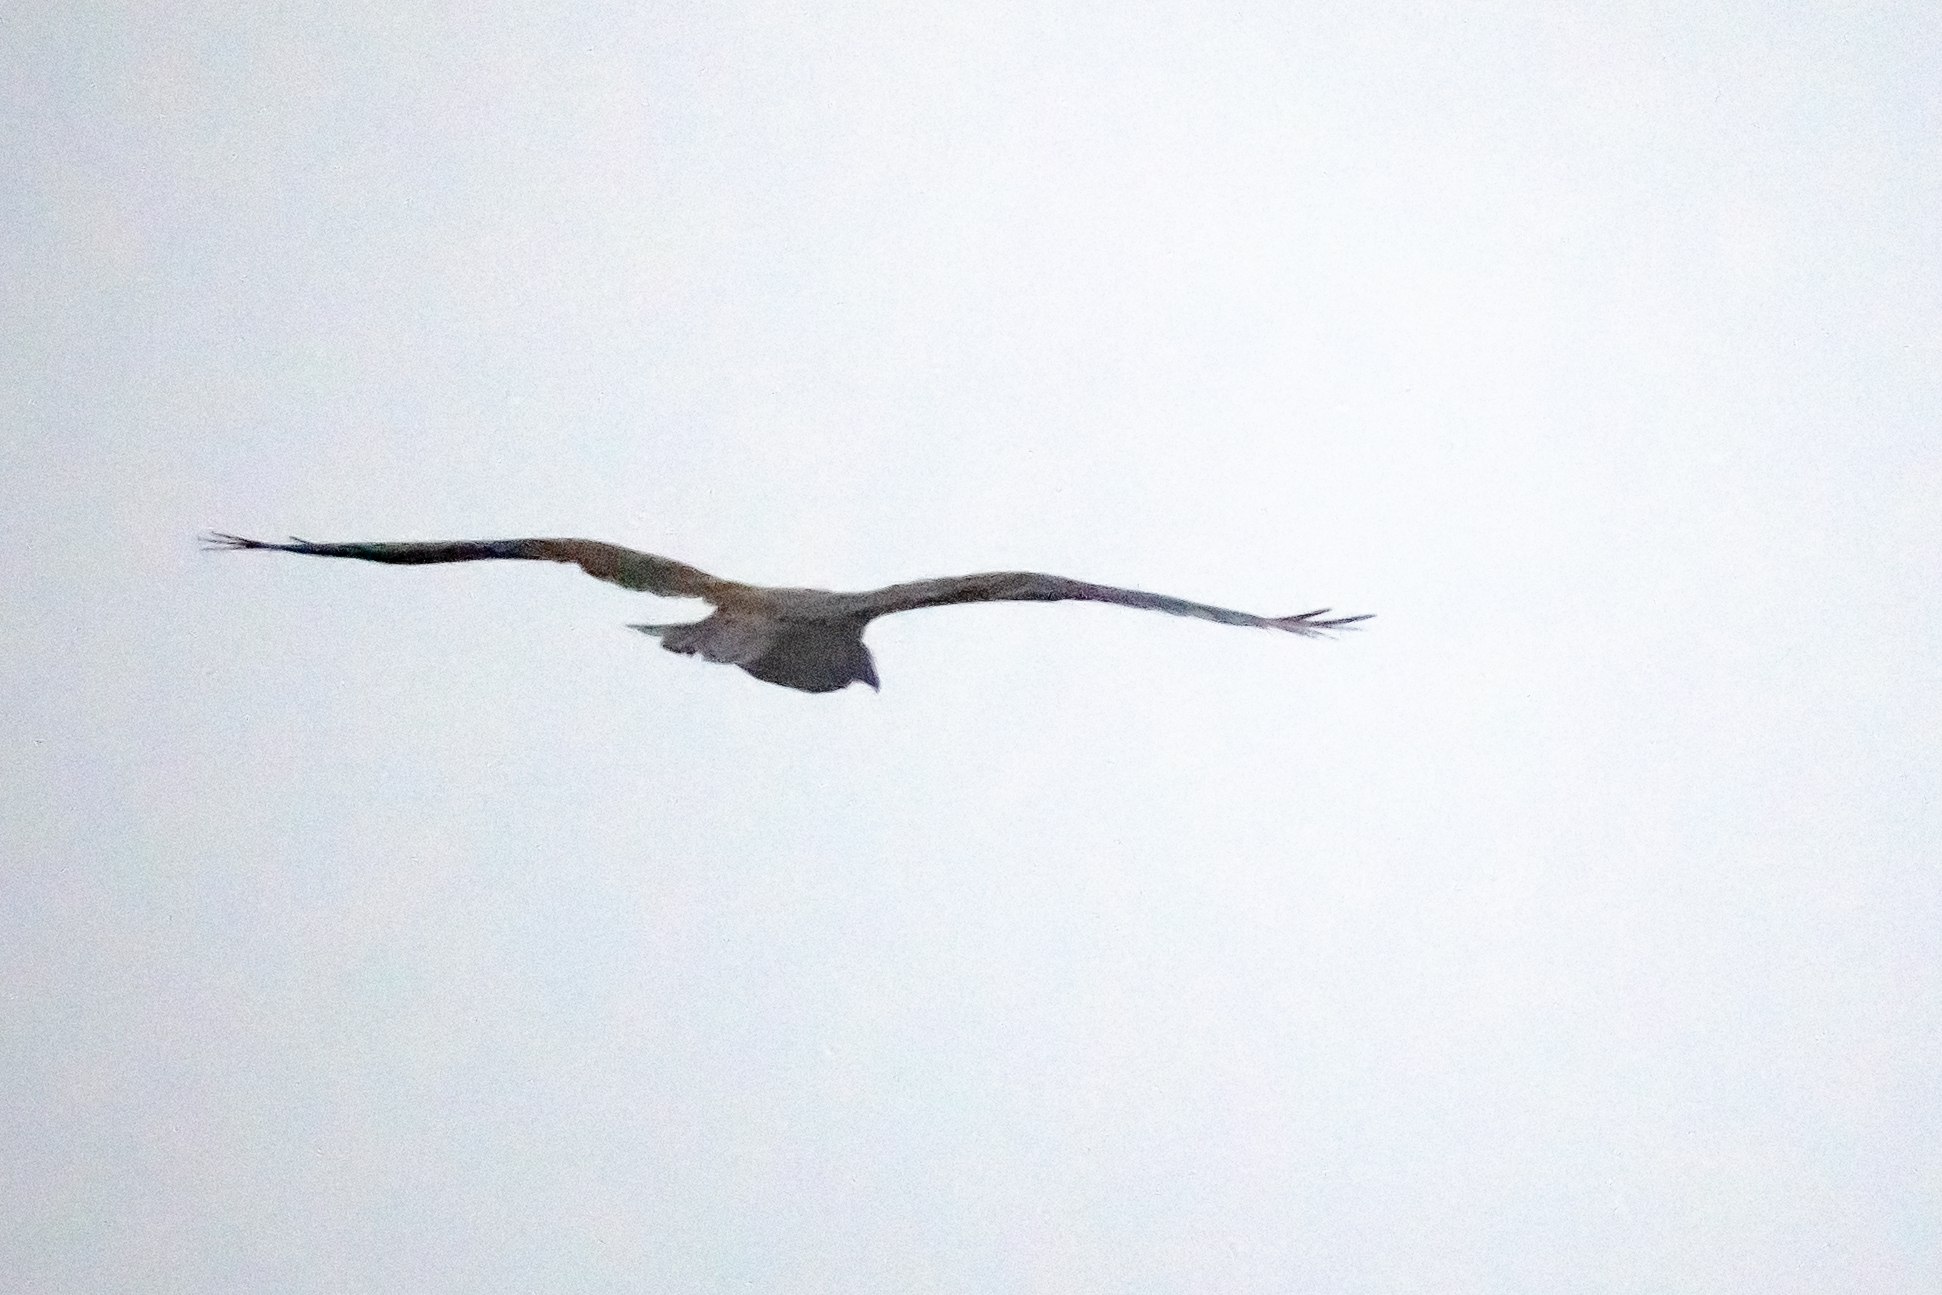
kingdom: Animalia
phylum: Chordata
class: Aves
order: Accipitriformes
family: Accipitridae
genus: Circus
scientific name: Circus aeruginosus
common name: Western marsh harrier
